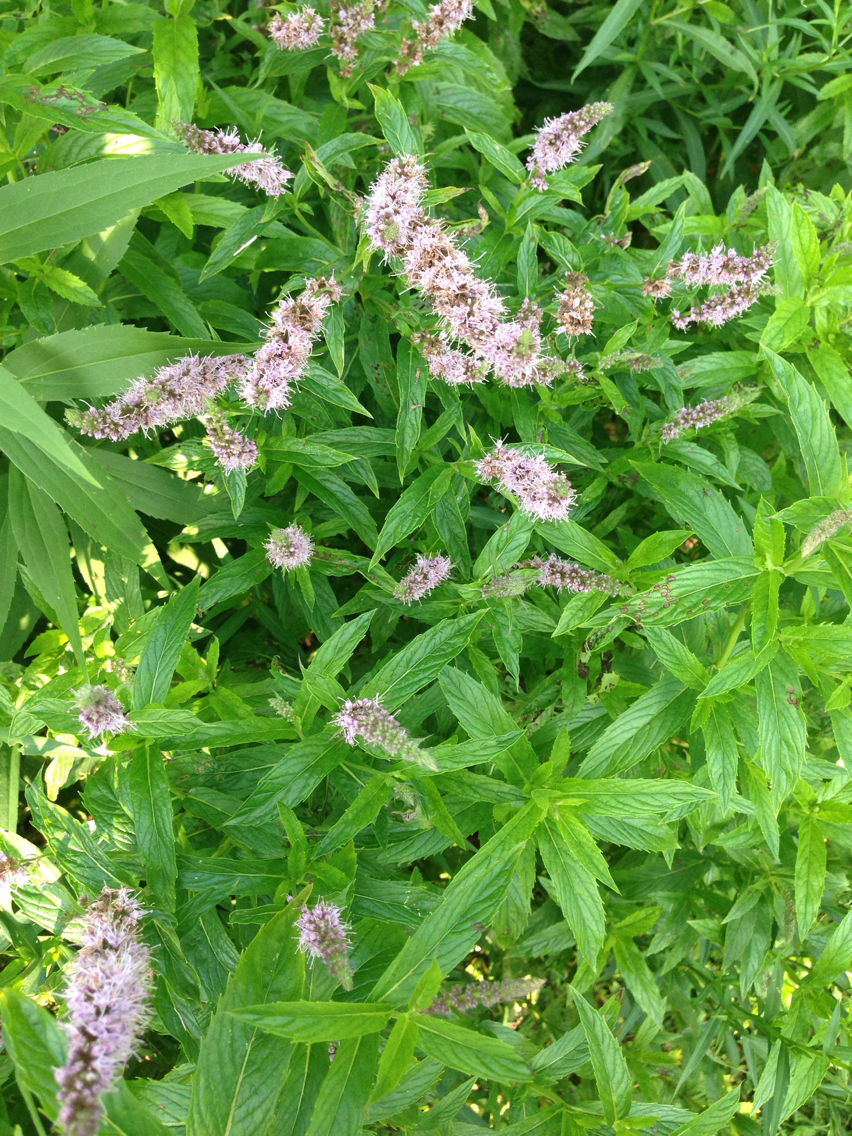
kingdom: Plantae
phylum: Tracheophyta
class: Magnoliopsida
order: Lamiales
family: Lamiaceae
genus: Mentha
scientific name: Mentha spicata
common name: Spearmint
